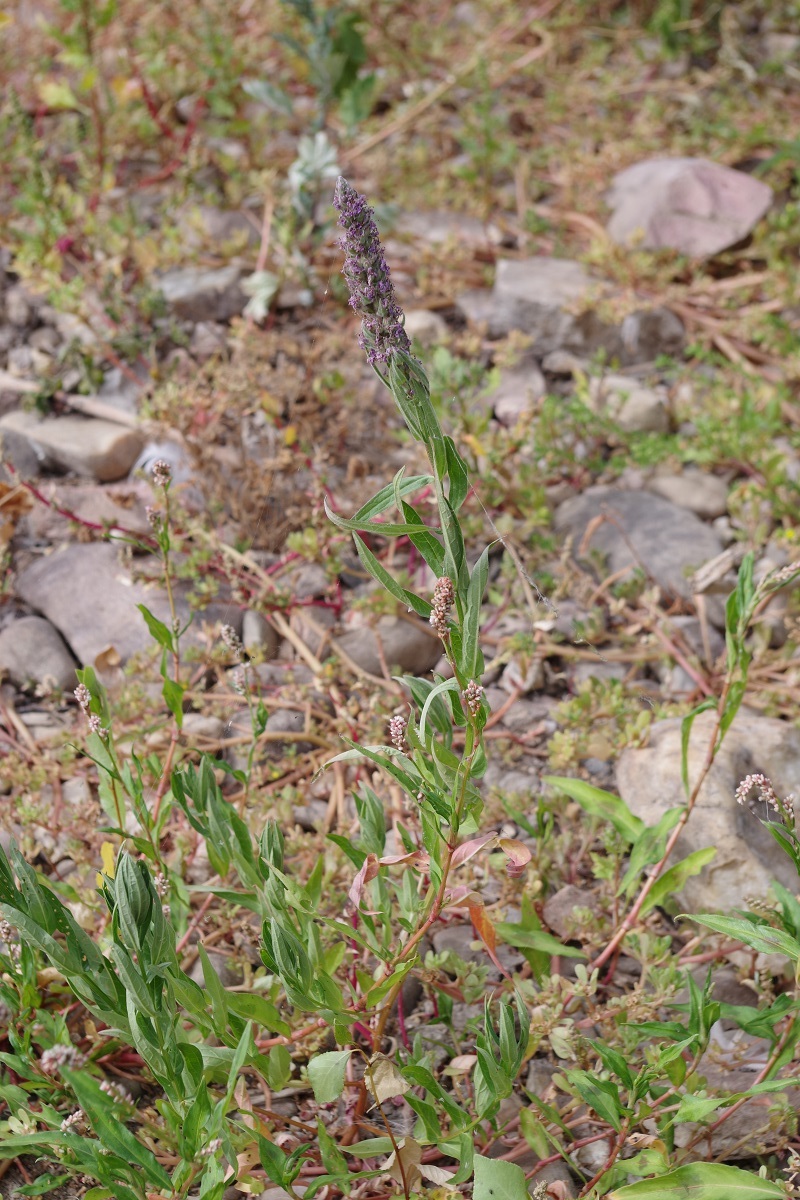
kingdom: Plantae
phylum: Tracheophyta
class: Magnoliopsida
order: Myrtales
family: Lythraceae
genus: Lythrum
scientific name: Lythrum salicaria
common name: Purple loosestrife
